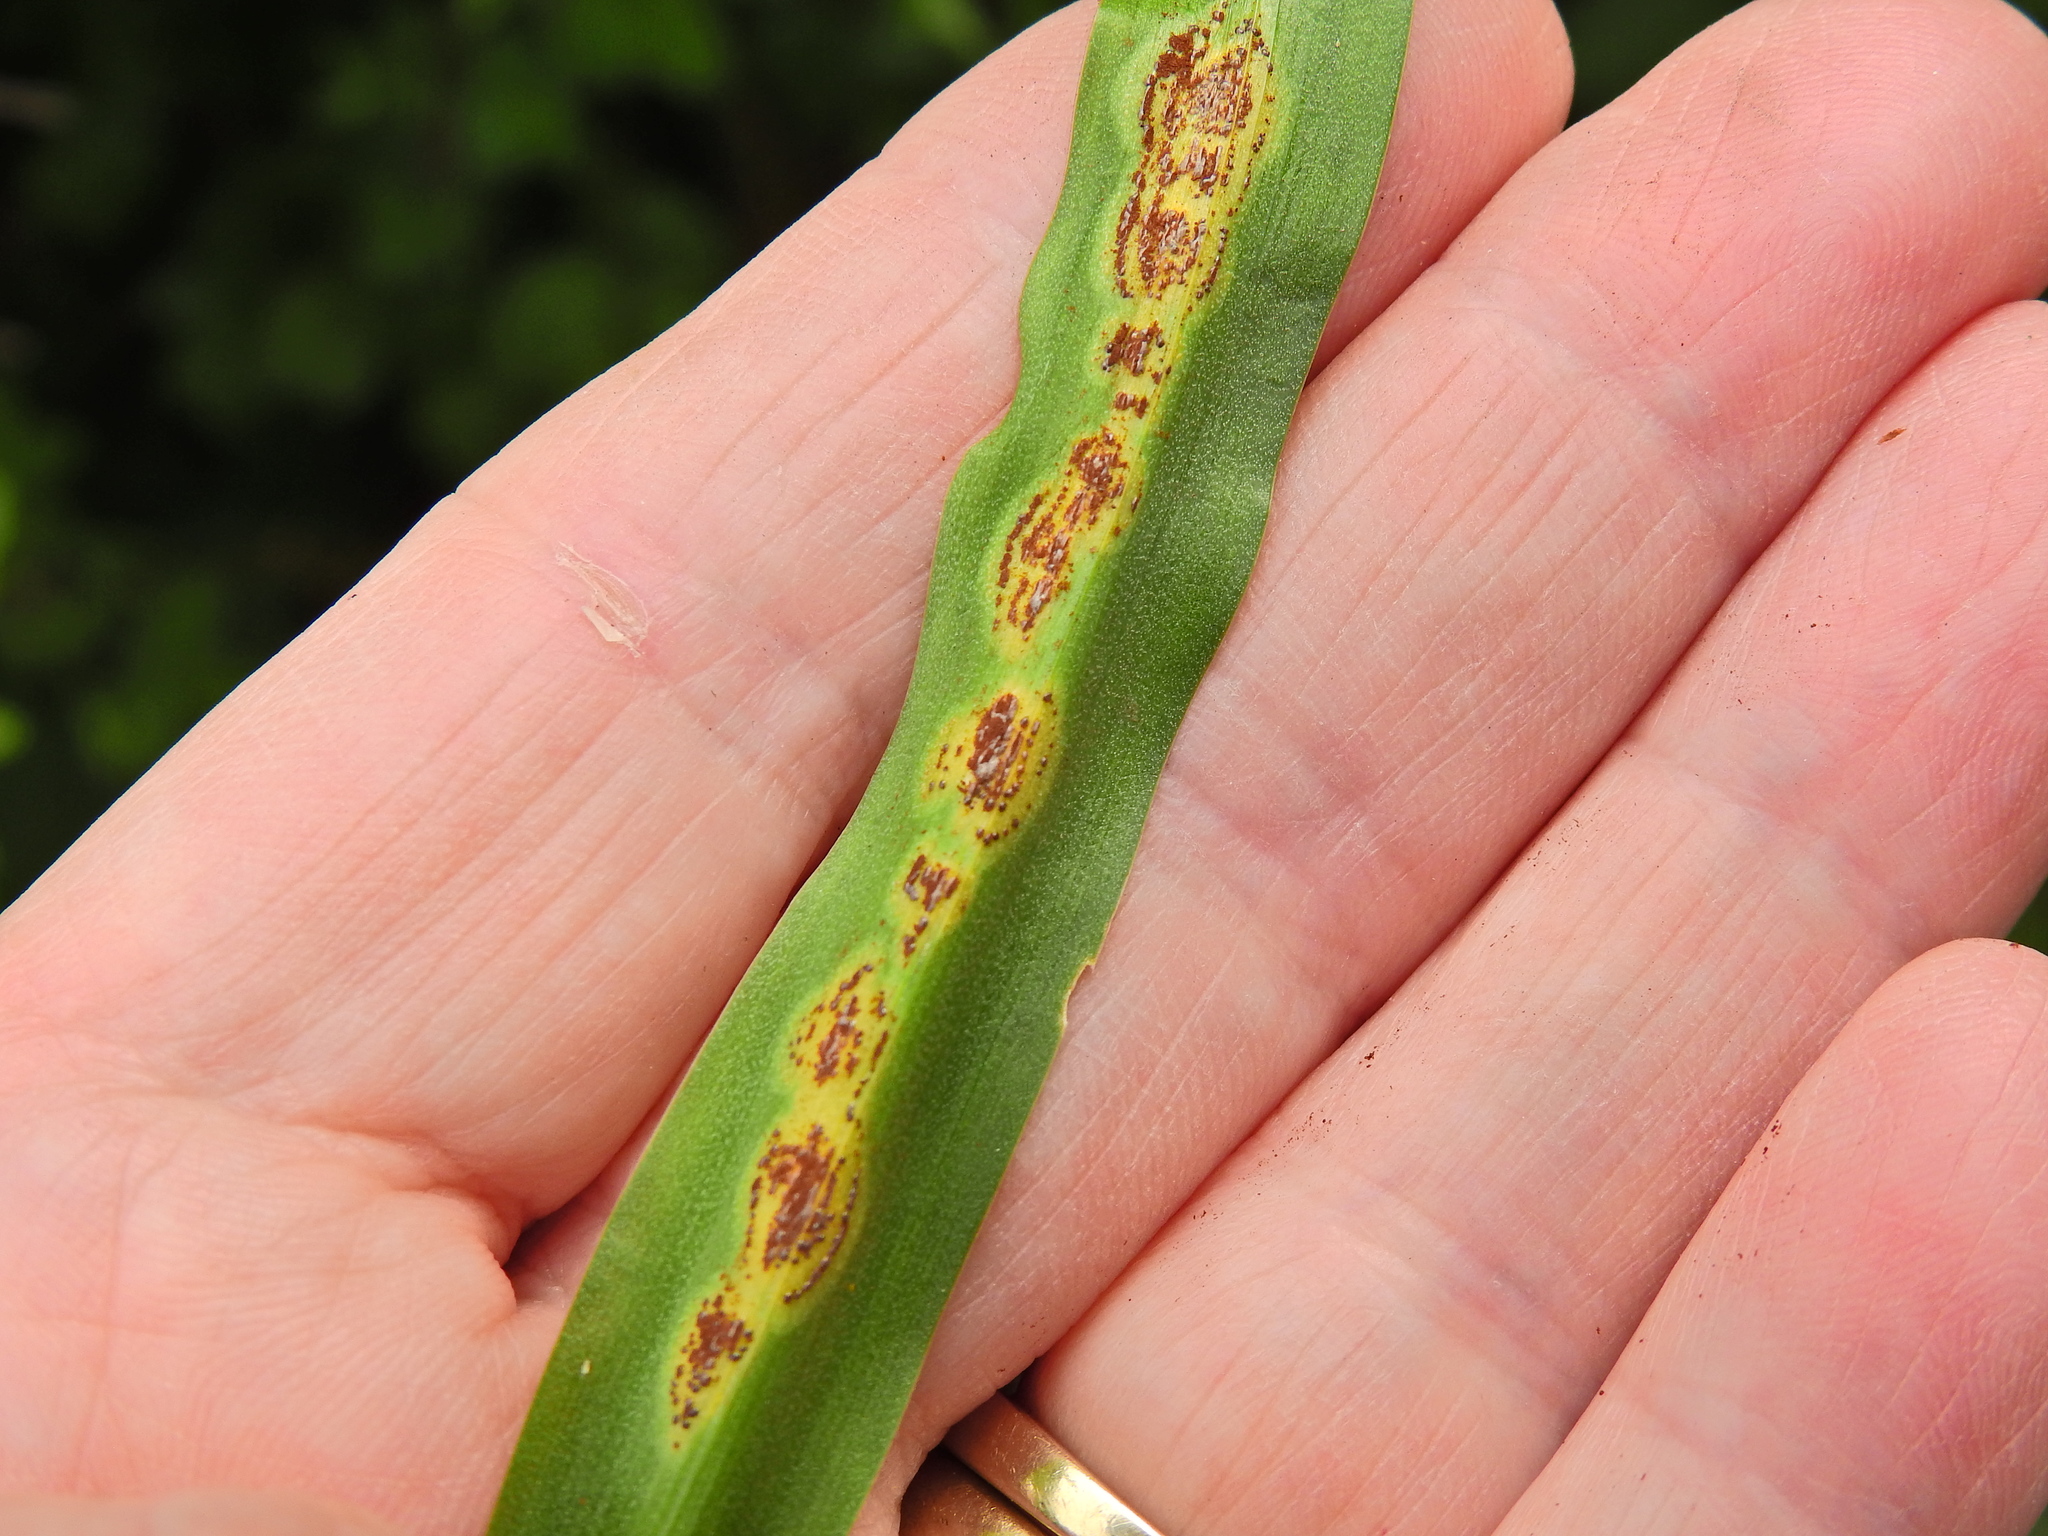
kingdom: Fungi
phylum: Basidiomycota
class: Pucciniomycetes
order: Pucciniales
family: Pucciniaceae
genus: Uromyces
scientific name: Uromyces hyacinthi
